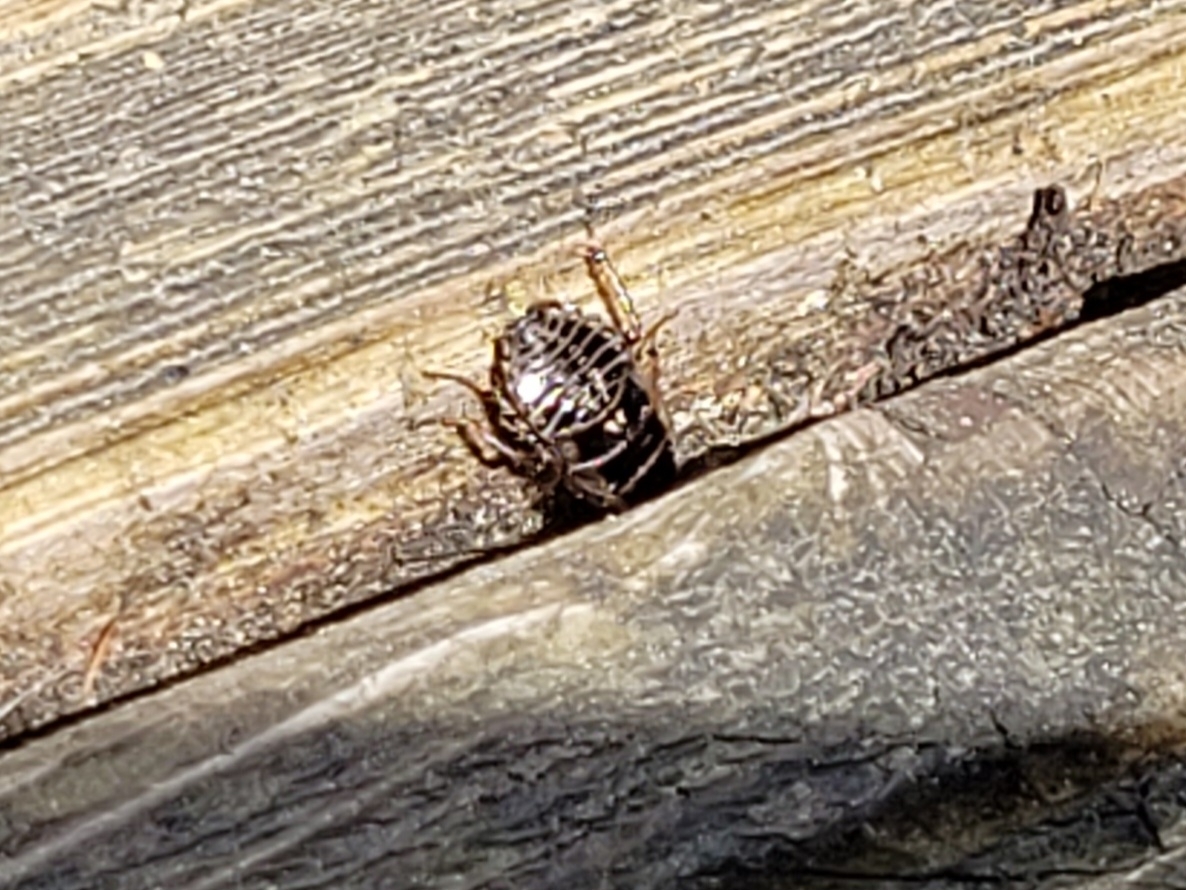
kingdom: Animalia
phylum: Arthropoda
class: Insecta
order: Blattodea
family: Ectobiidae
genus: Ectobius
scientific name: Ectobius sylvestris
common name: Forest cockroach
